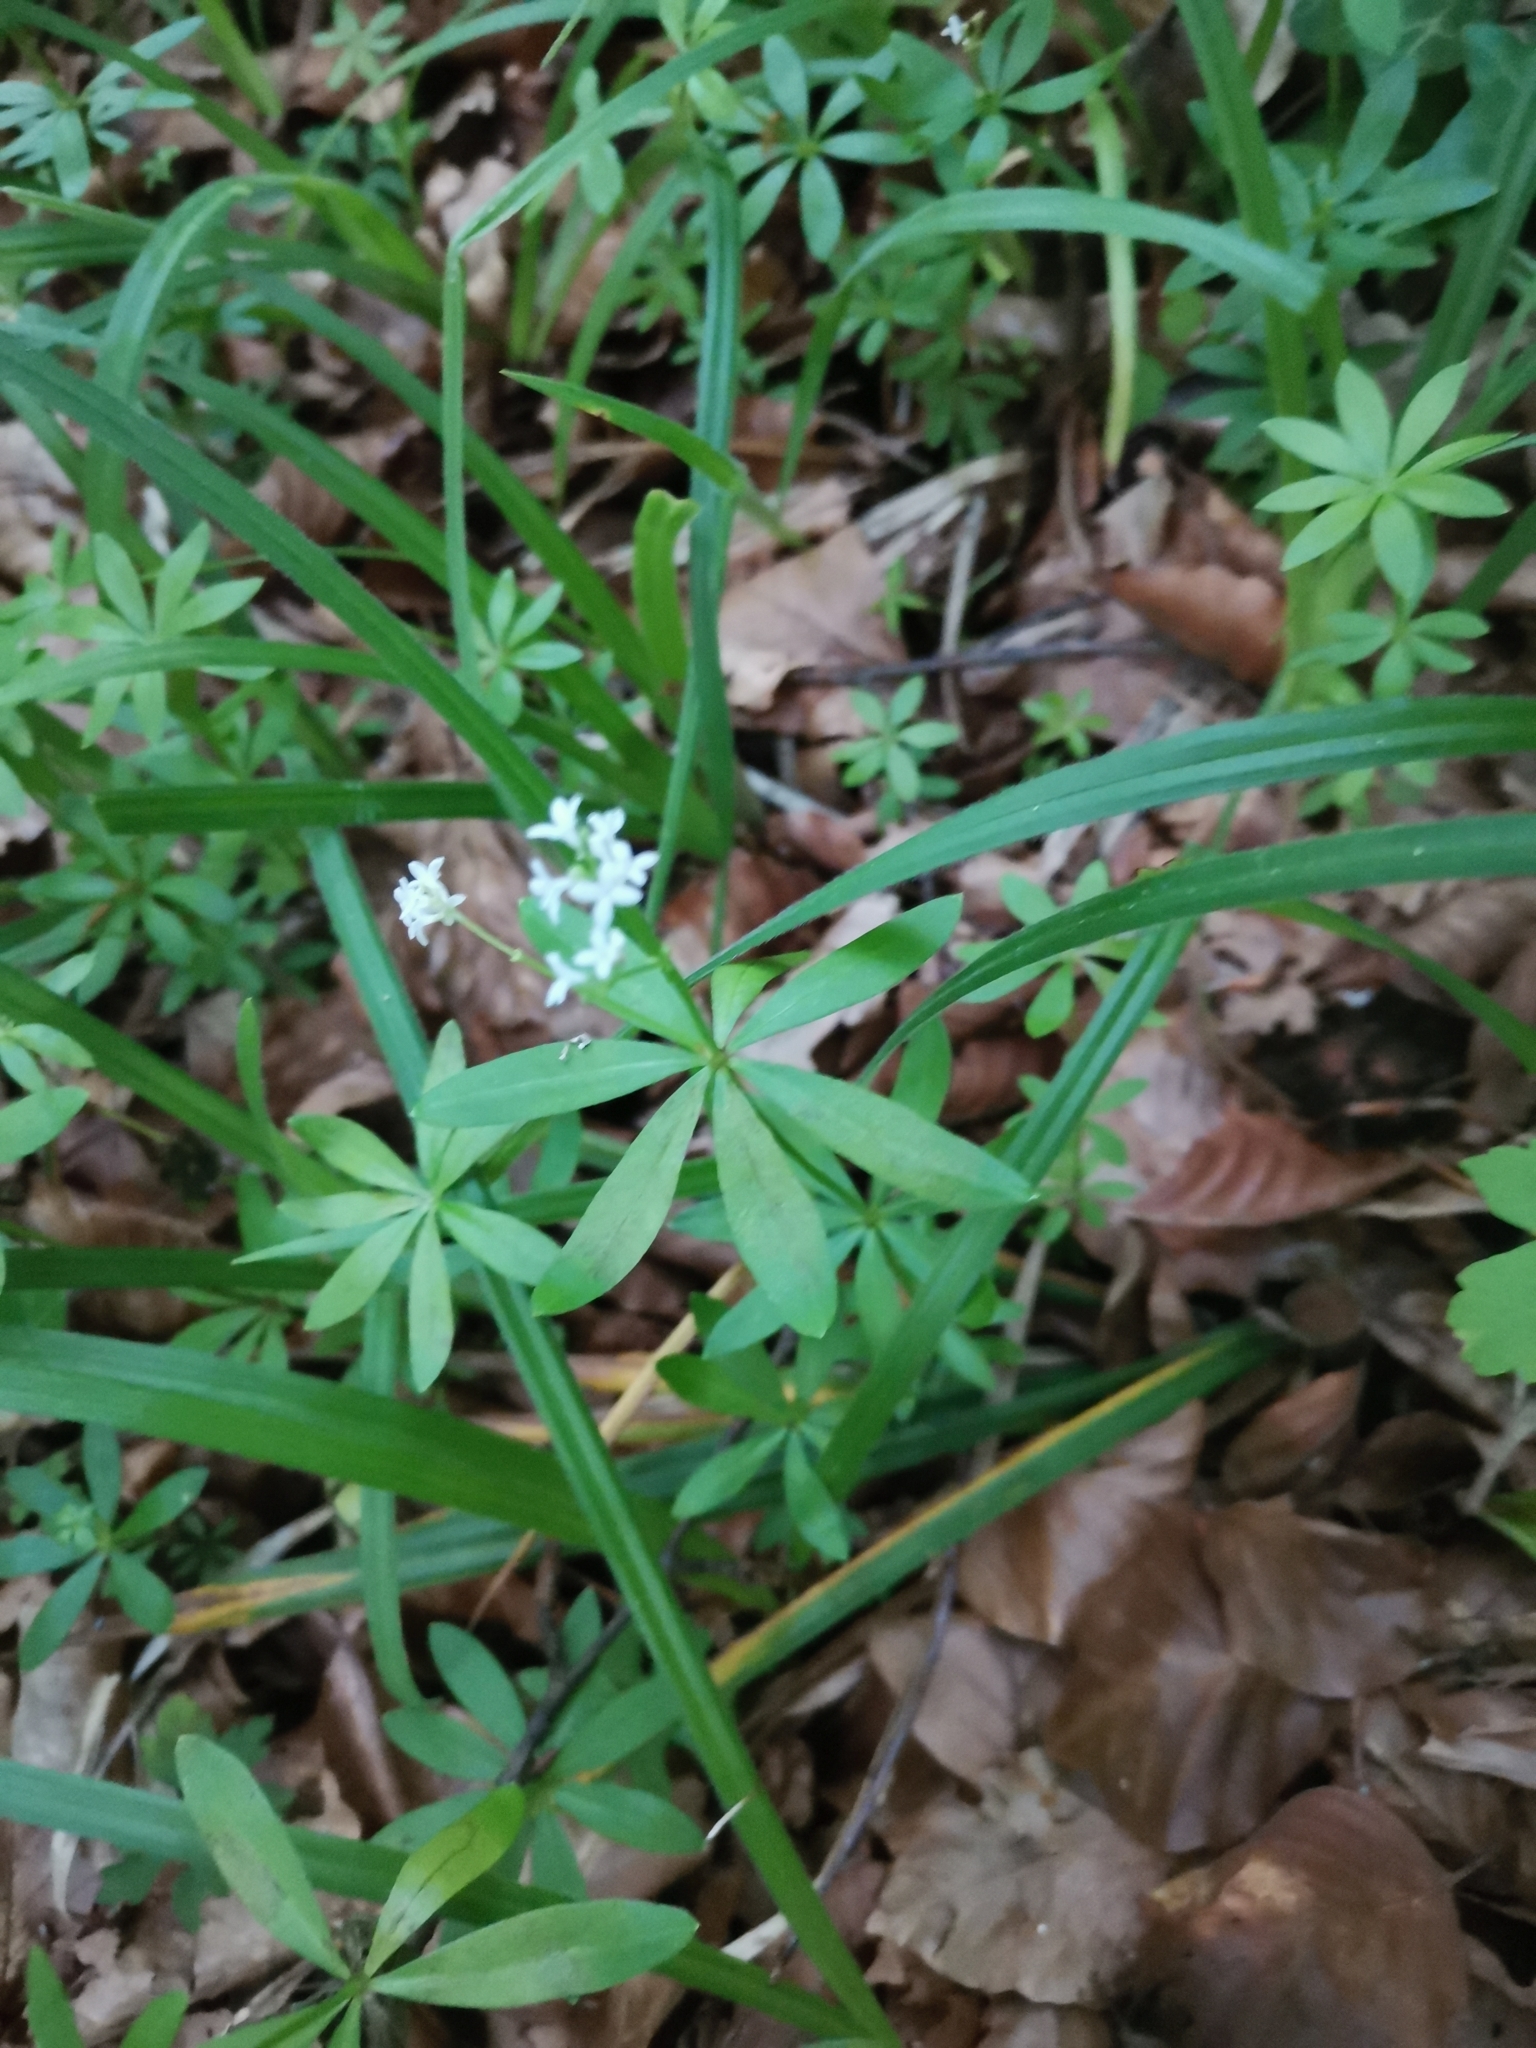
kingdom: Plantae
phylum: Tracheophyta
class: Magnoliopsida
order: Gentianales
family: Rubiaceae
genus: Galium
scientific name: Galium odoratum
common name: Sweet woodruff
